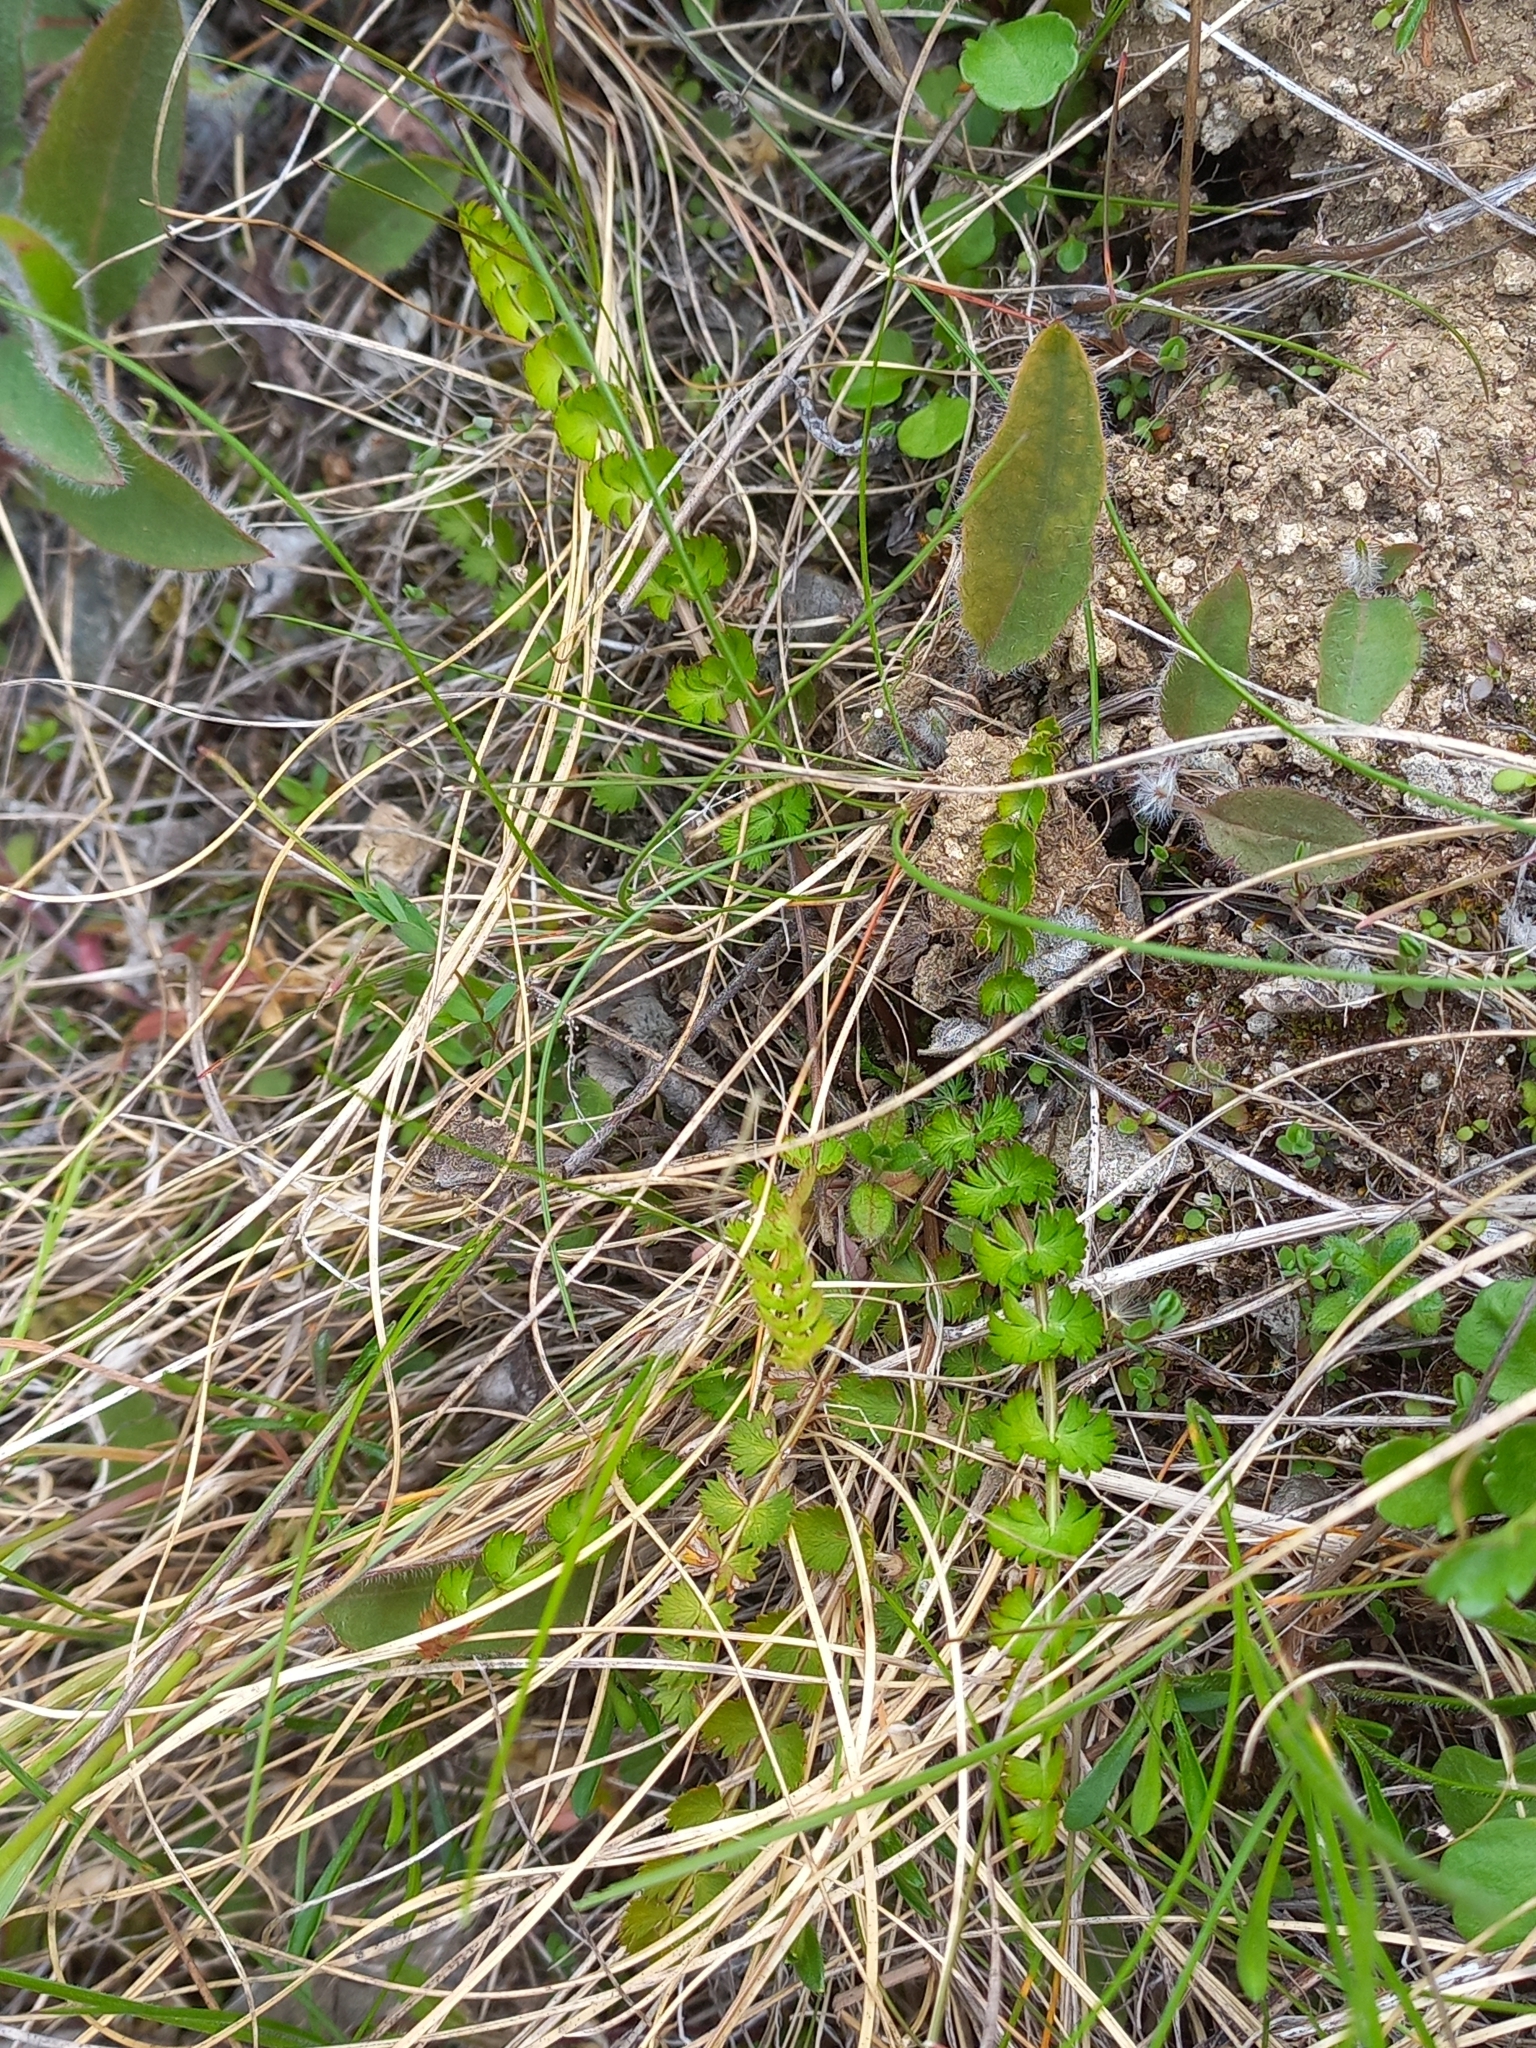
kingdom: Plantae
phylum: Tracheophyta
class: Magnoliopsida
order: Apiales
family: Apiaceae
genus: Anisotome
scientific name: Anisotome aromatica
